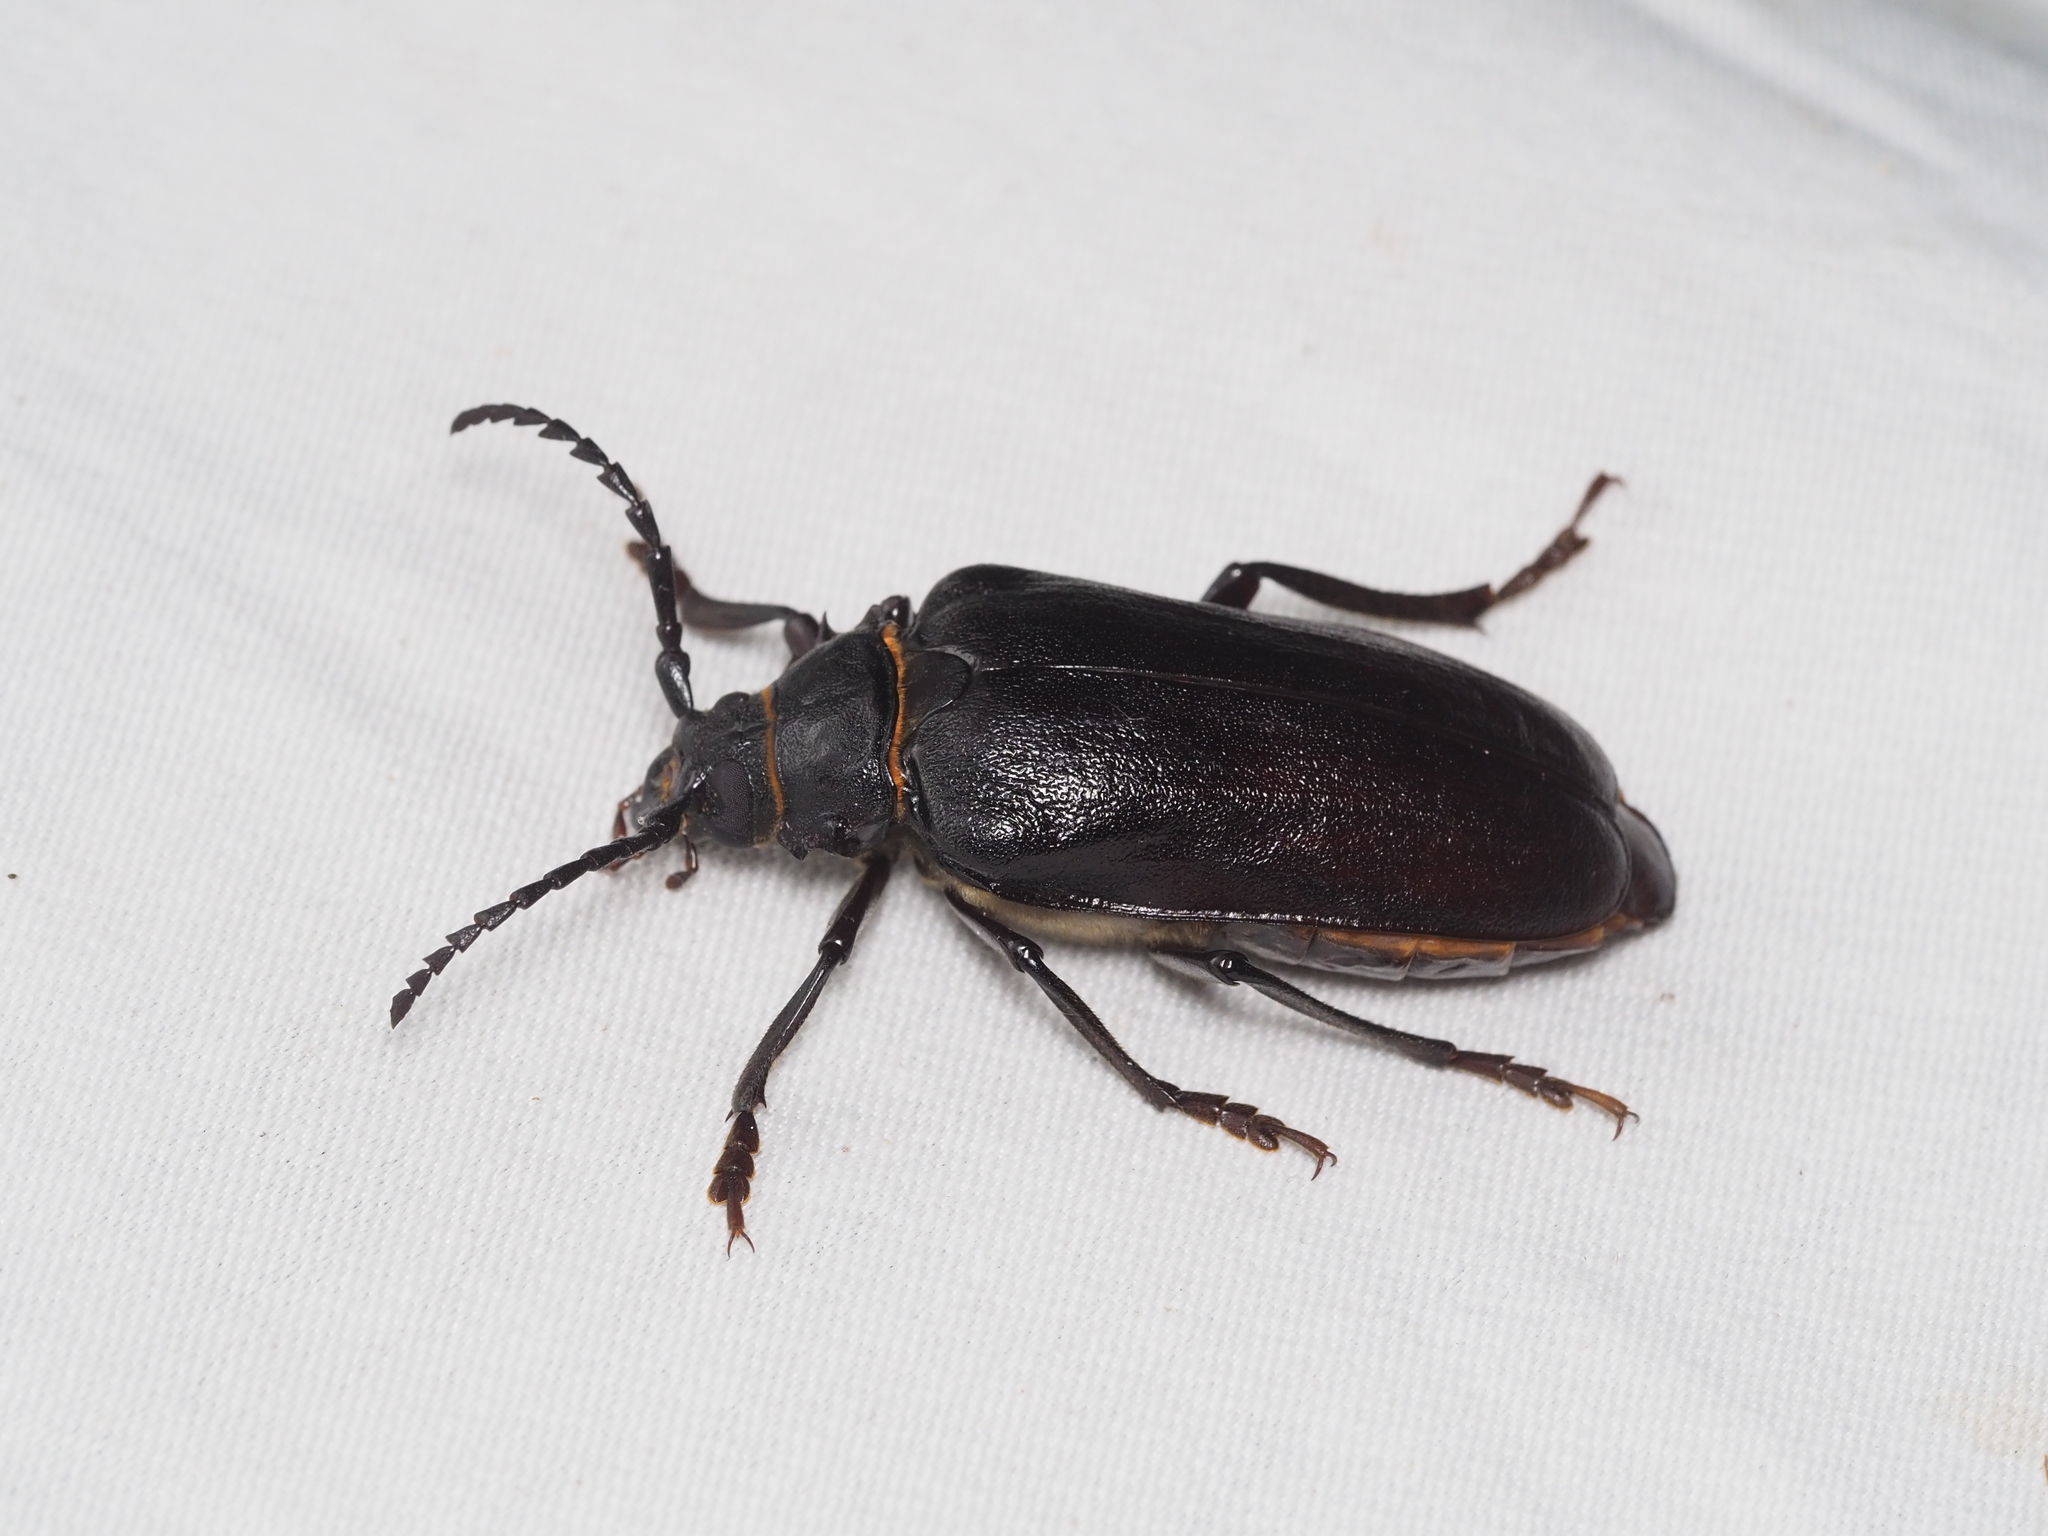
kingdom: Animalia
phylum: Arthropoda
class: Insecta
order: Coleoptera
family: Cerambycidae
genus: Prionus
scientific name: Prionus coriarius
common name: Tanner beetle
